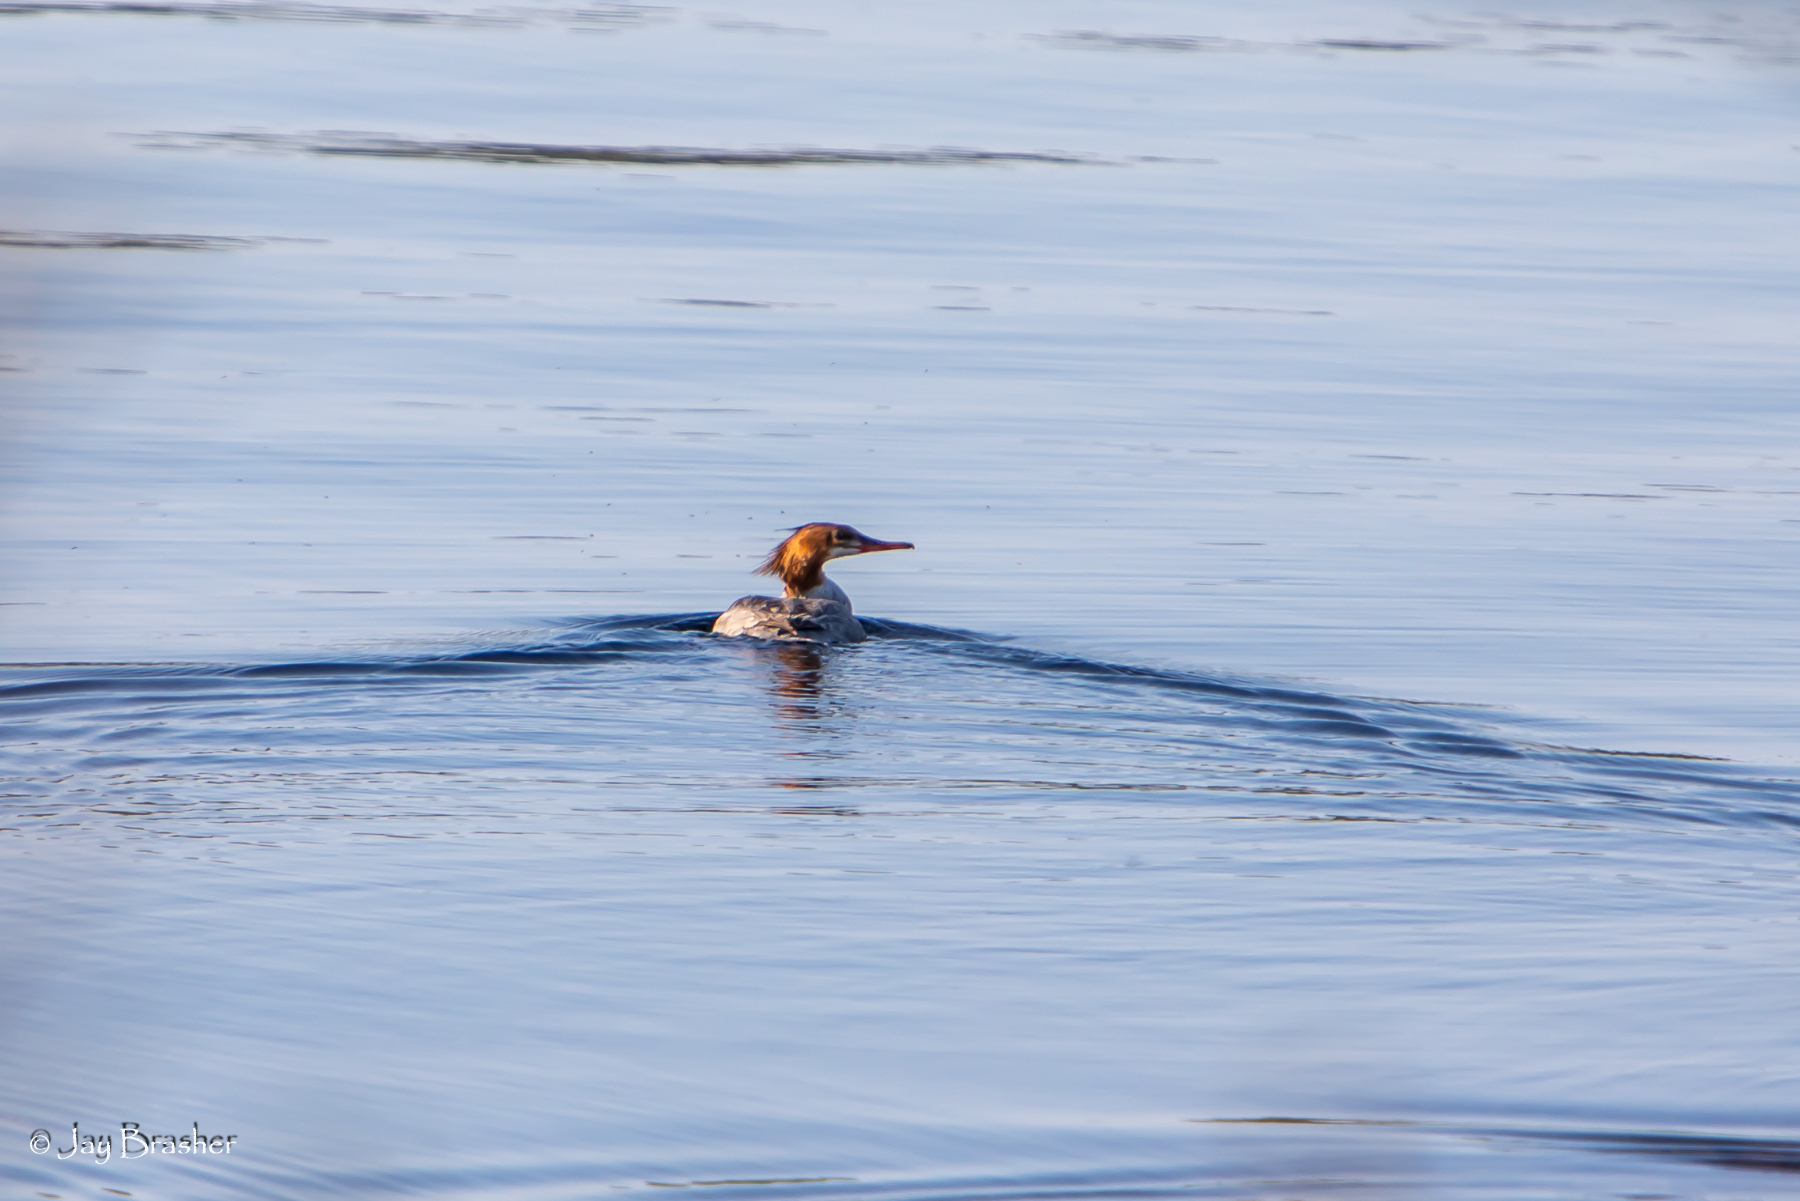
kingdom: Animalia
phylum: Chordata
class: Aves
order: Anseriformes
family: Anatidae
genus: Mergus
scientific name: Mergus merganser
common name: Common merganser
